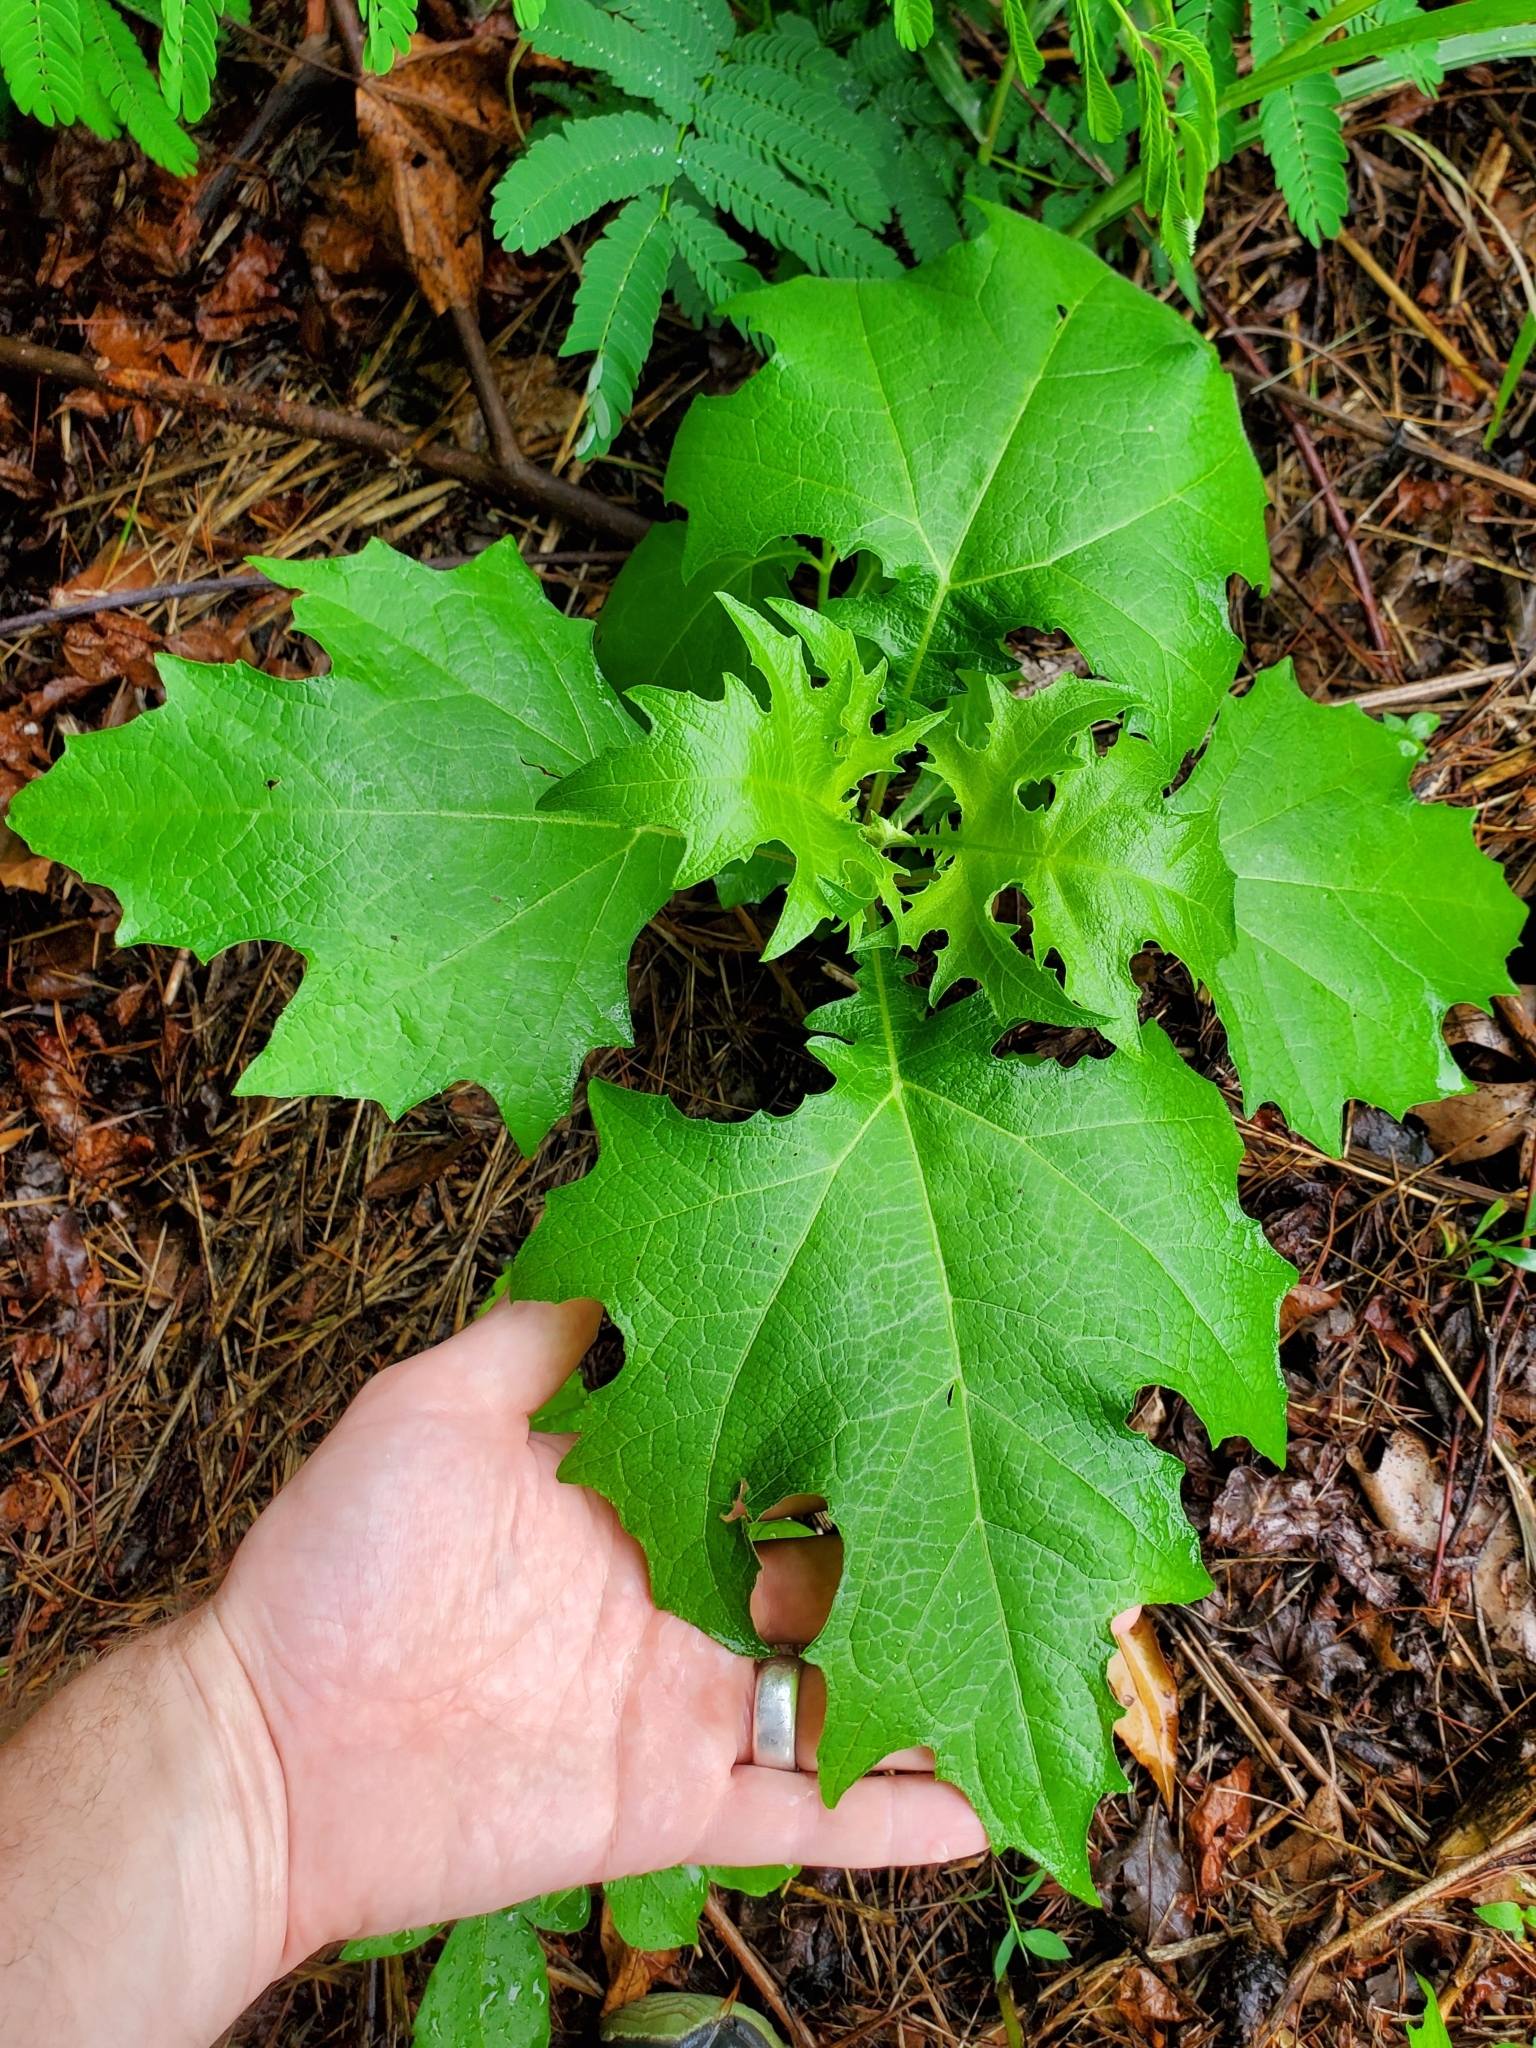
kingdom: Plantae
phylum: Tracheophyta
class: Magnoliopsida
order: Asterales
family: Asteraceae
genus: Smallanthus
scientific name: Smallanthus uvedalia
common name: Bear's-foot
